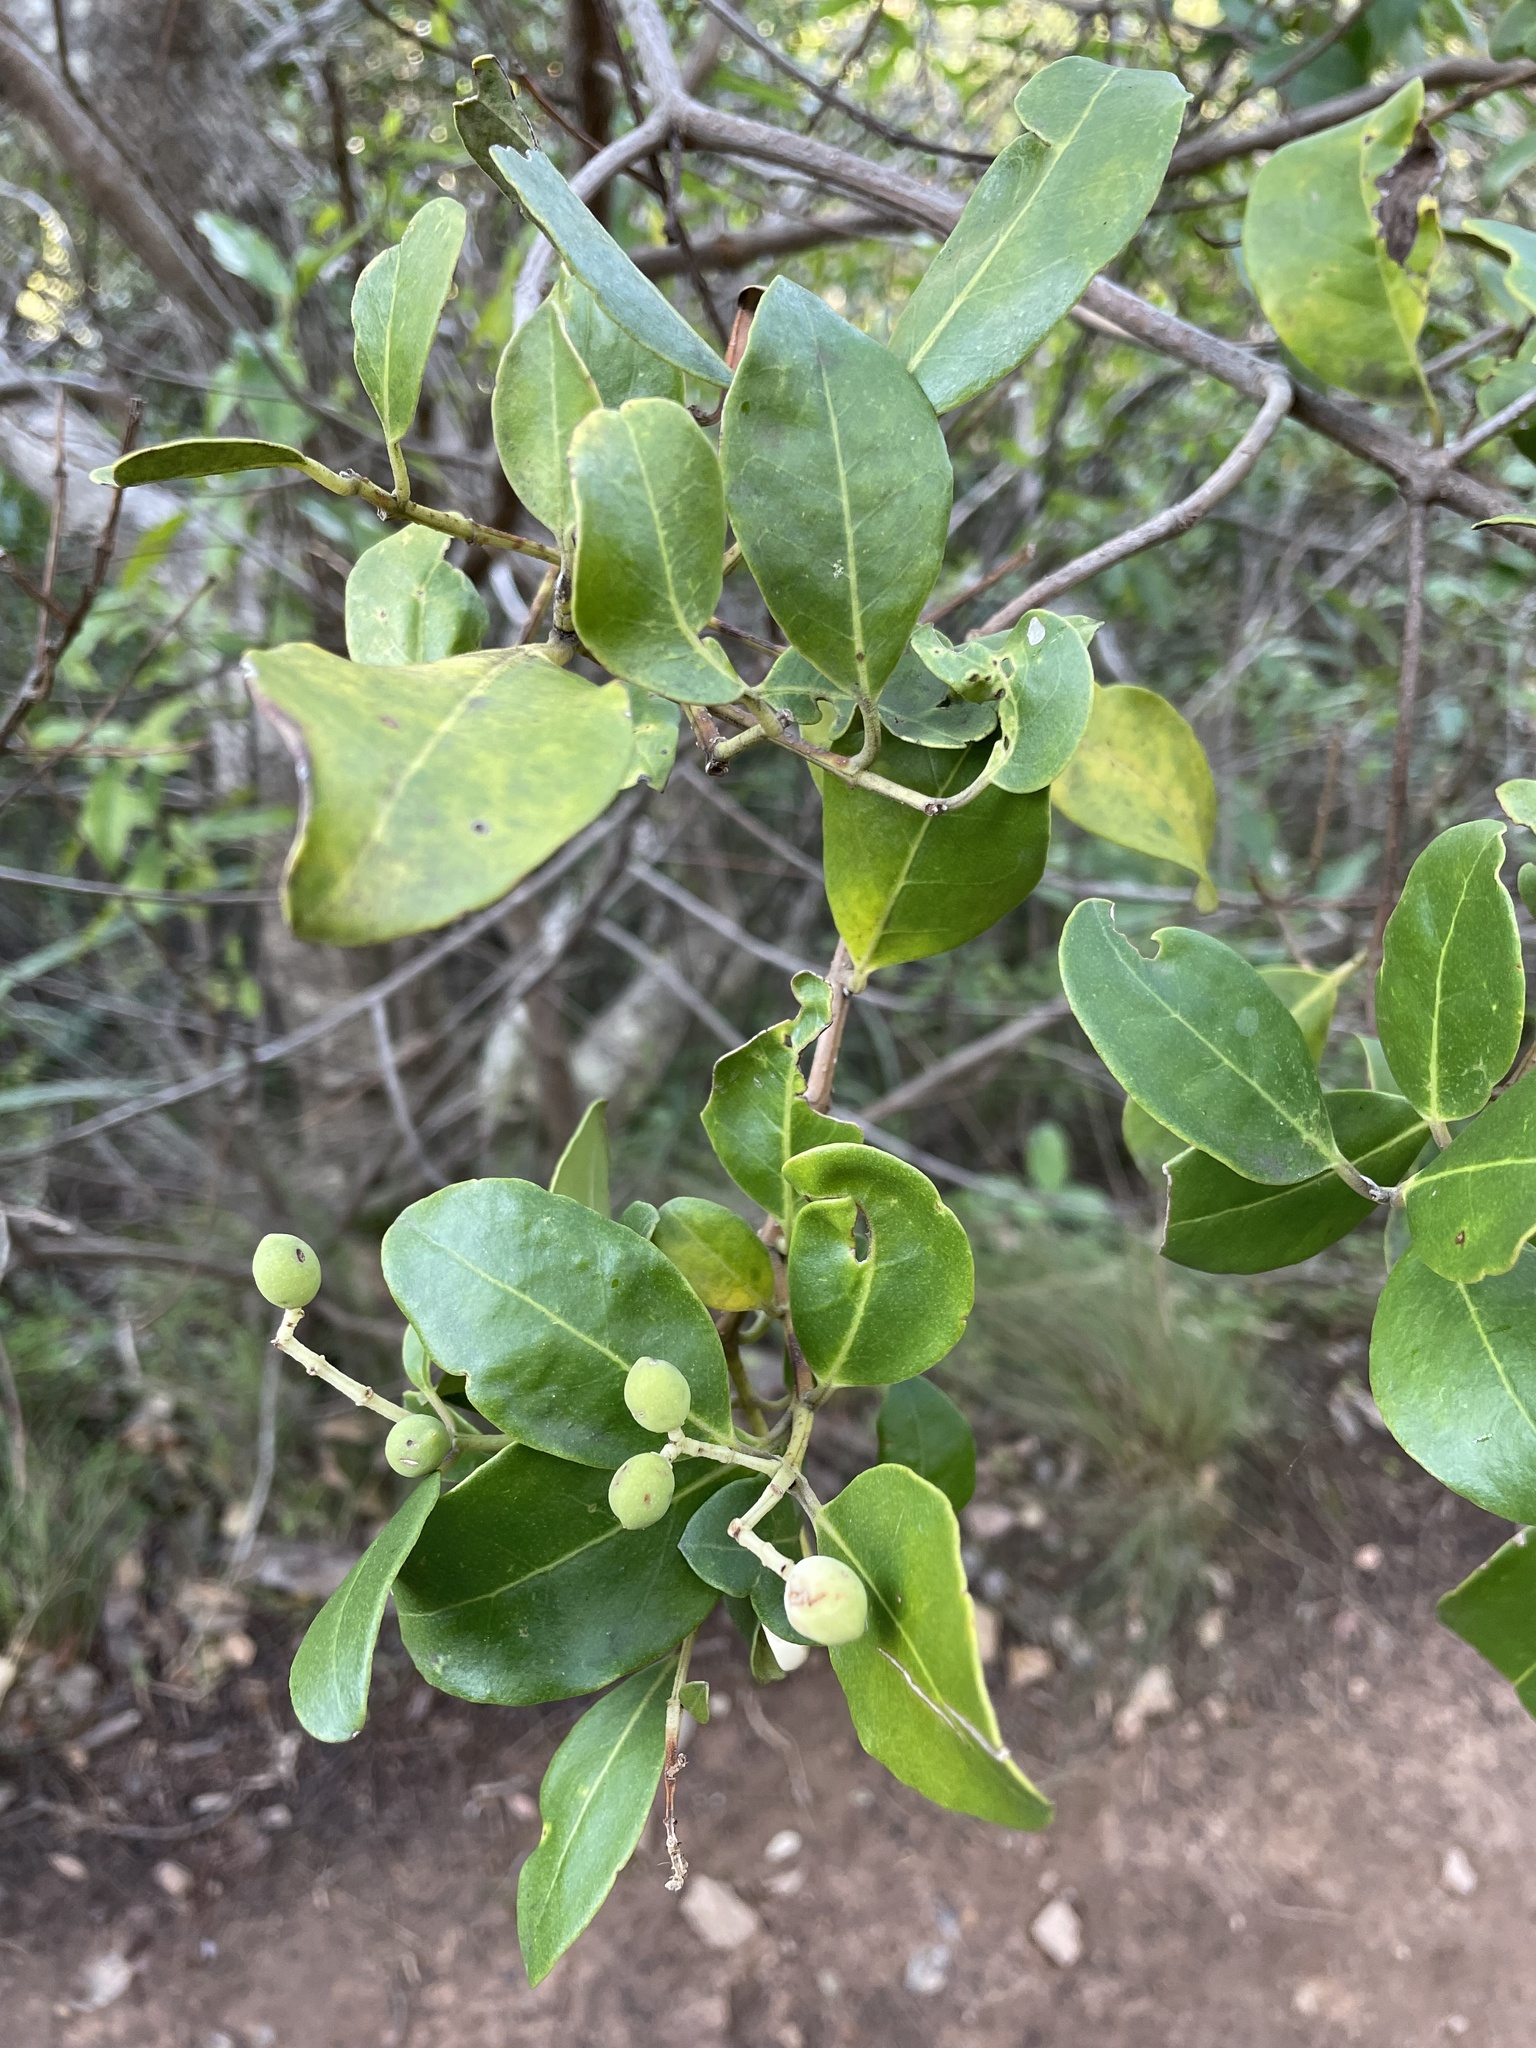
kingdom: Plantae
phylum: Tracheophyta
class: Magnoliopsida
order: Lamiales
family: Oleaceae
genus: Olea
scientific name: Olea capensis
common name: Black ironwood
